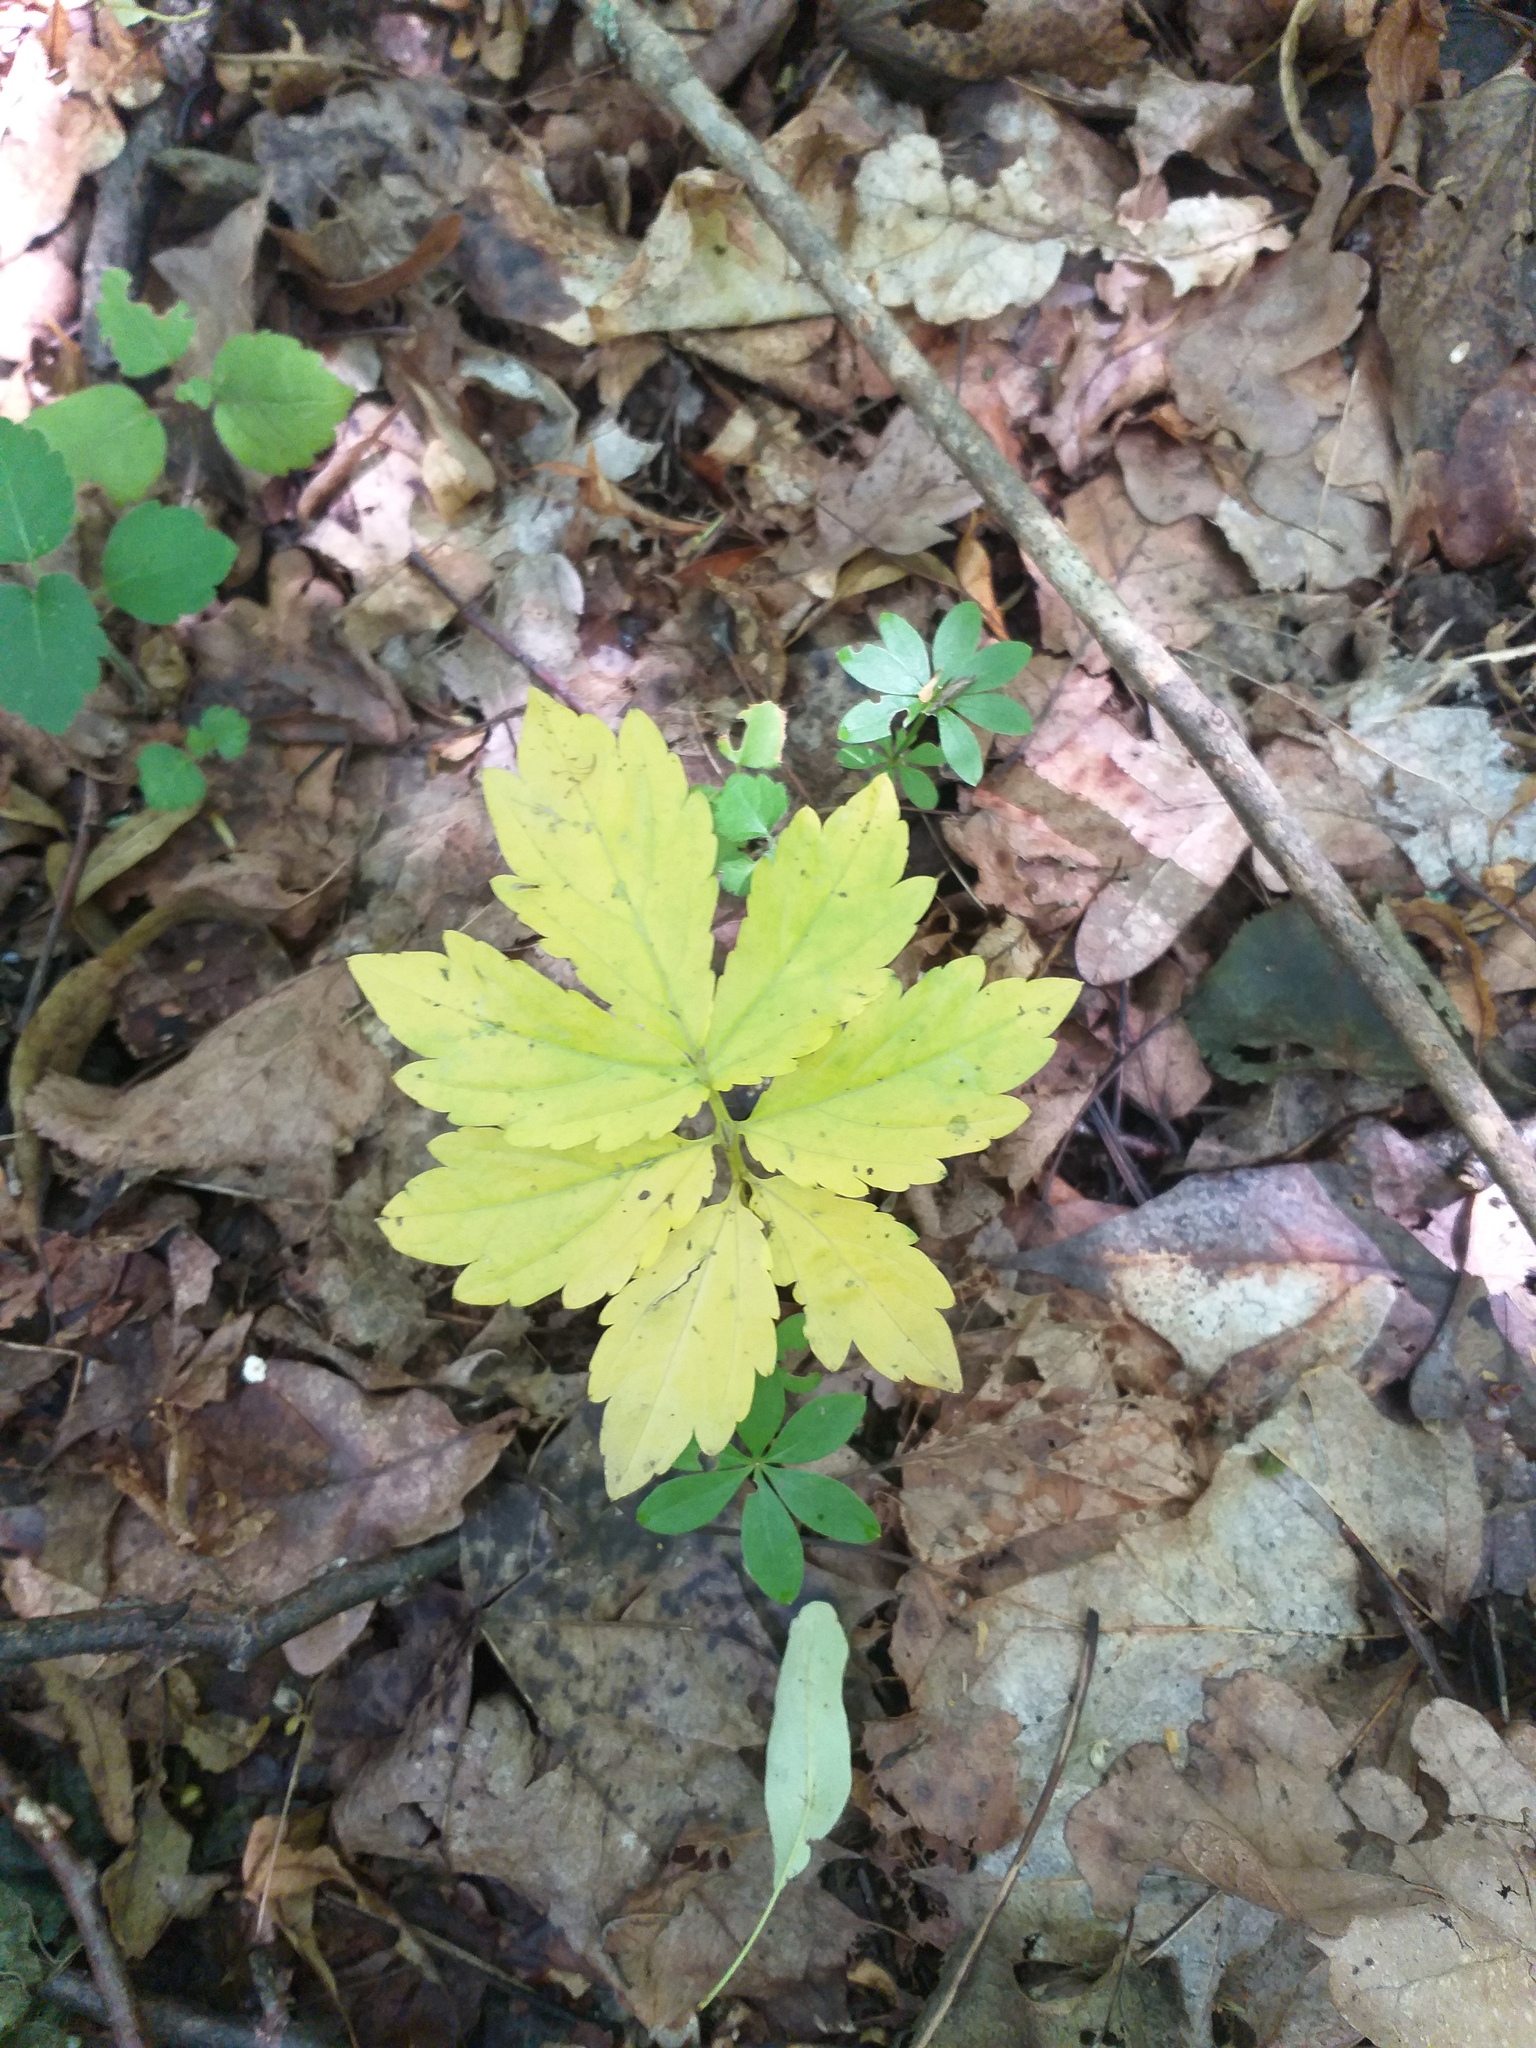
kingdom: Plantae
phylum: Tracheophyta
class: Magnoliopsida
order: Brassicales
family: Brassicaceae
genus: Cardamine
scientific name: Cardamine quinquefolia
